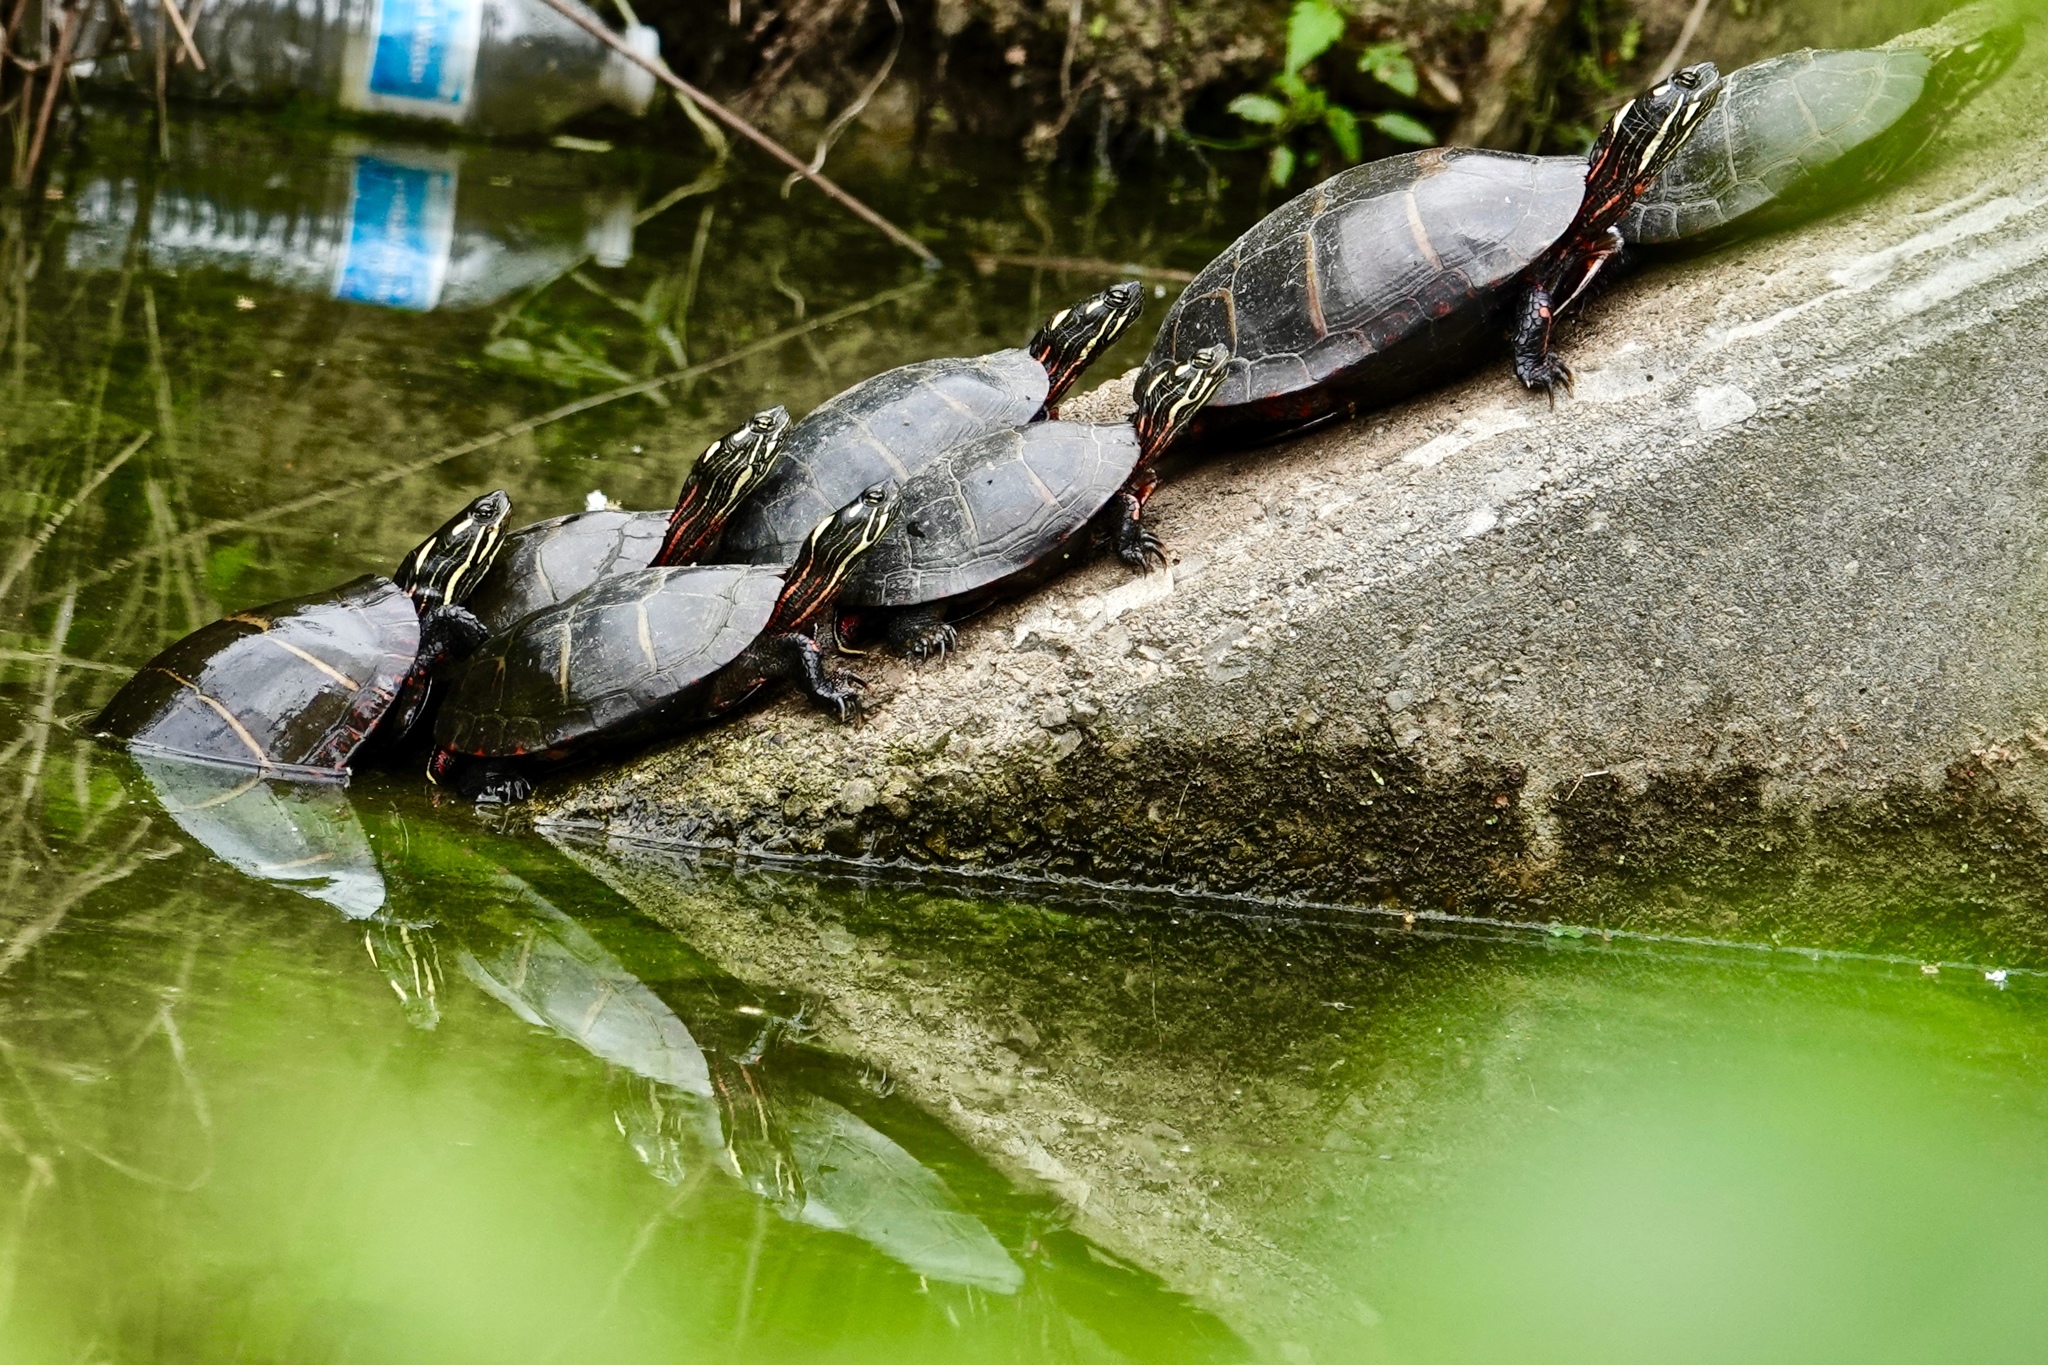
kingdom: Animalia
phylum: Chordata
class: Testudines
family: Emydidae
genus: Chrysemys
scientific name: Chrysemys picta
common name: Painted turtle
